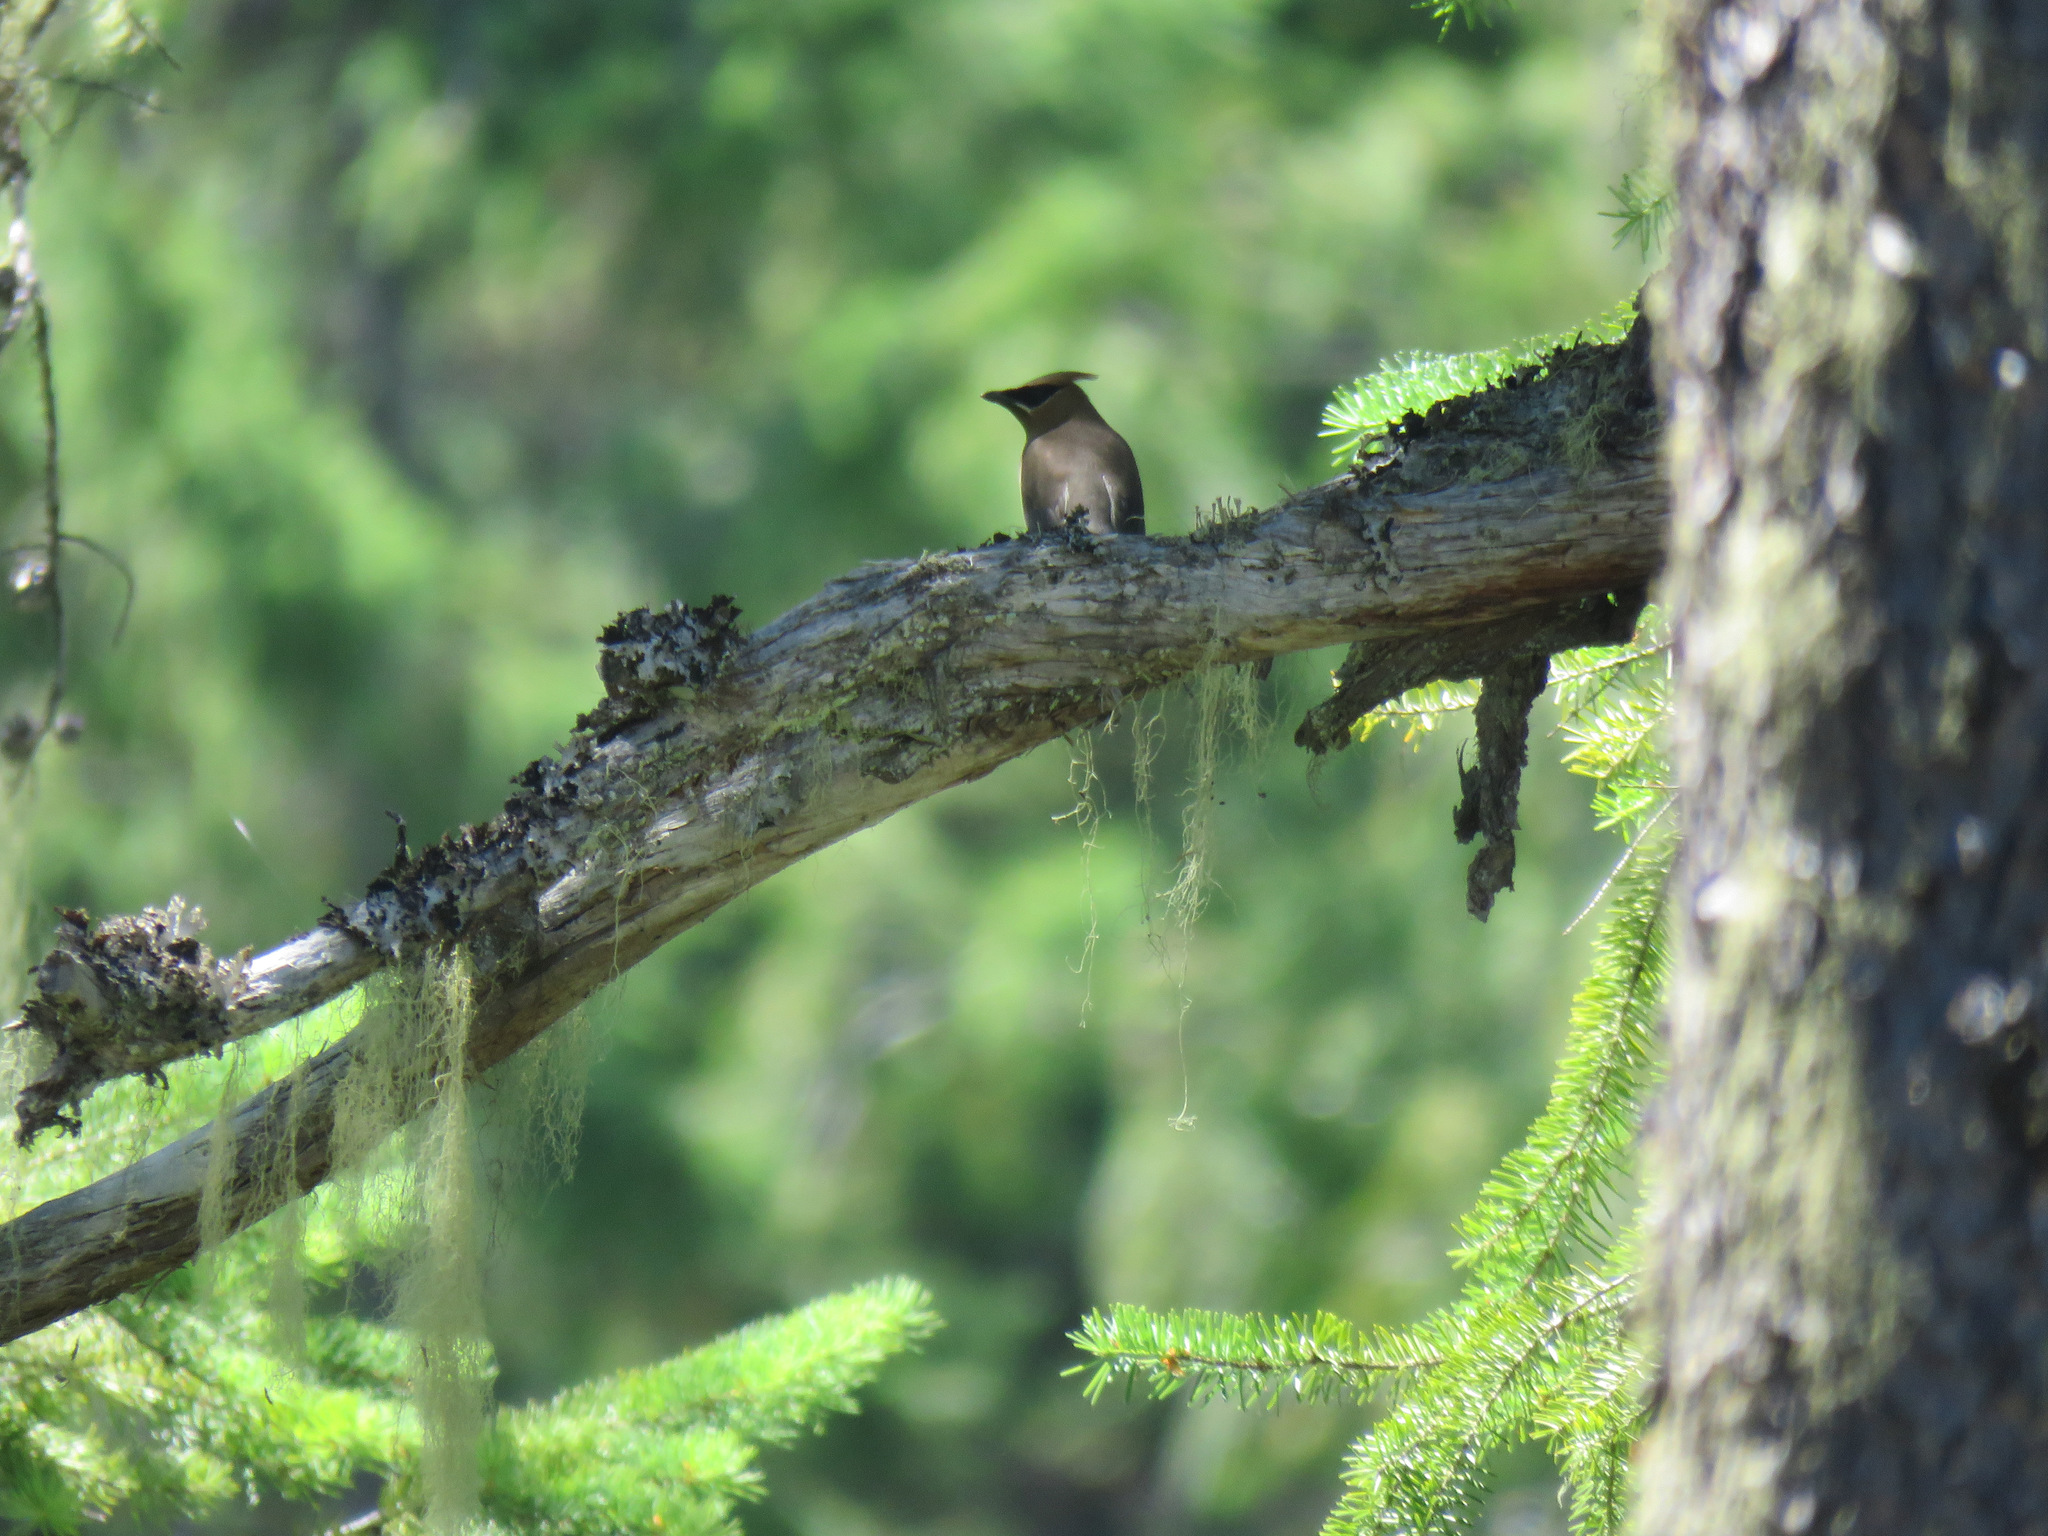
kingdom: Animalia
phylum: Chordata
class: Aves
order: Passeriformes
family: Bombycillidae
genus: Bombycilla
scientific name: Bombycilla cedrorum
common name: Cedar waxwing
